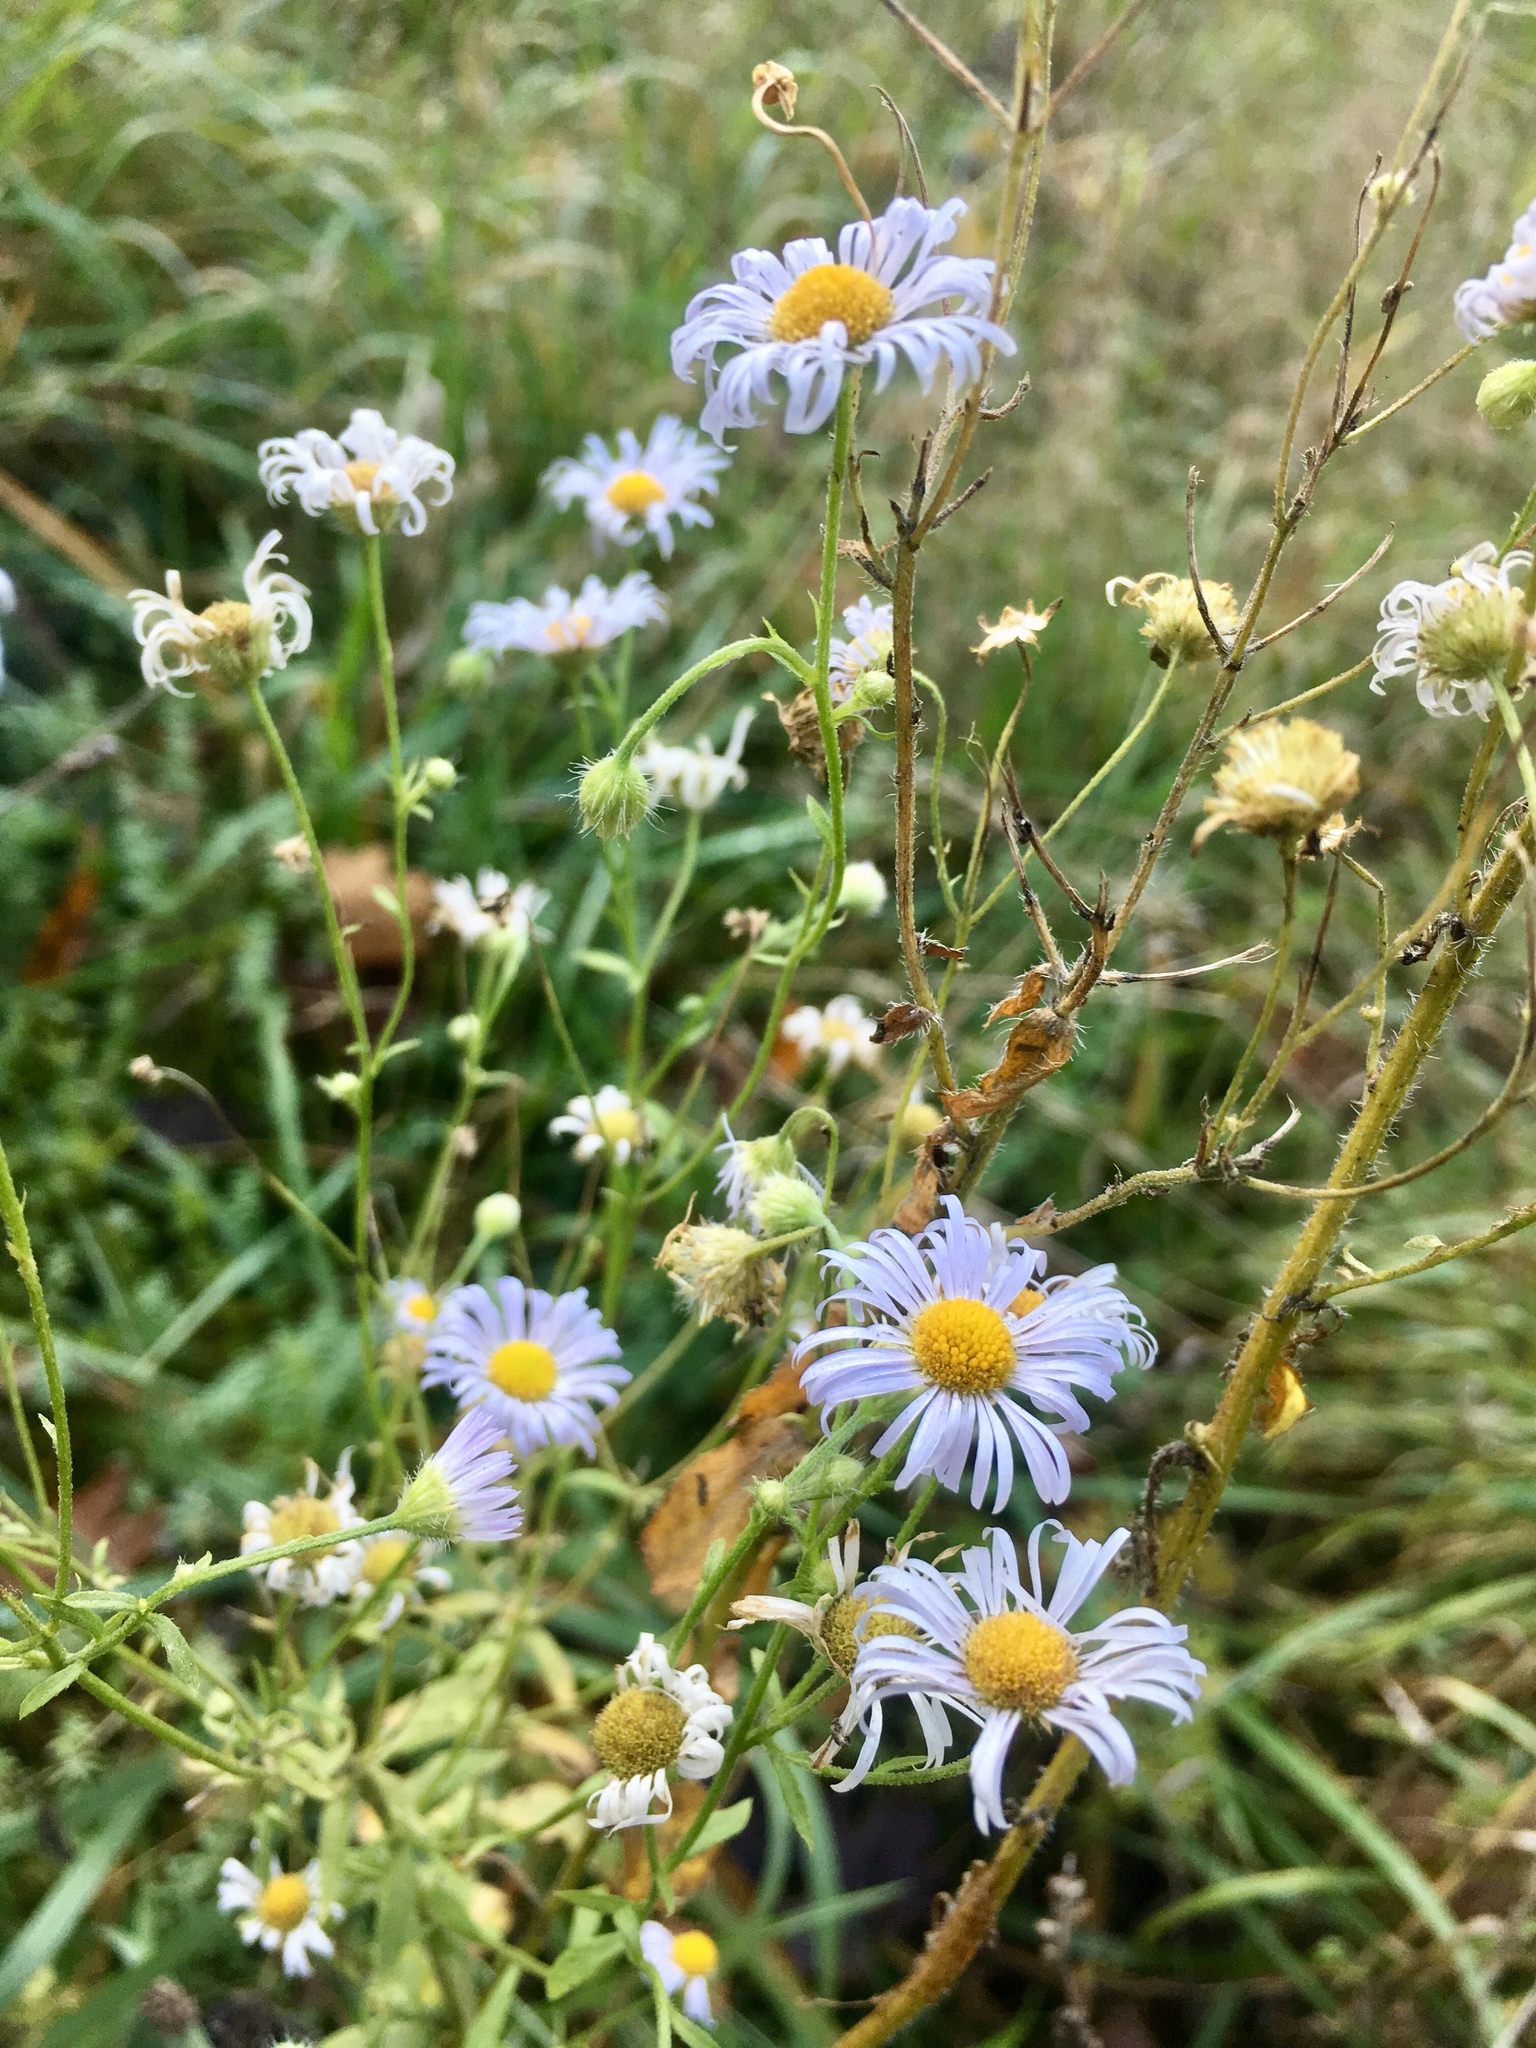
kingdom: Plantae
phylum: Tracheophyta
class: Magnoliopsida
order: Asterales
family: Asteraceae
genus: Erigeron
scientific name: Erigeron annuus
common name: Tall fleabane
